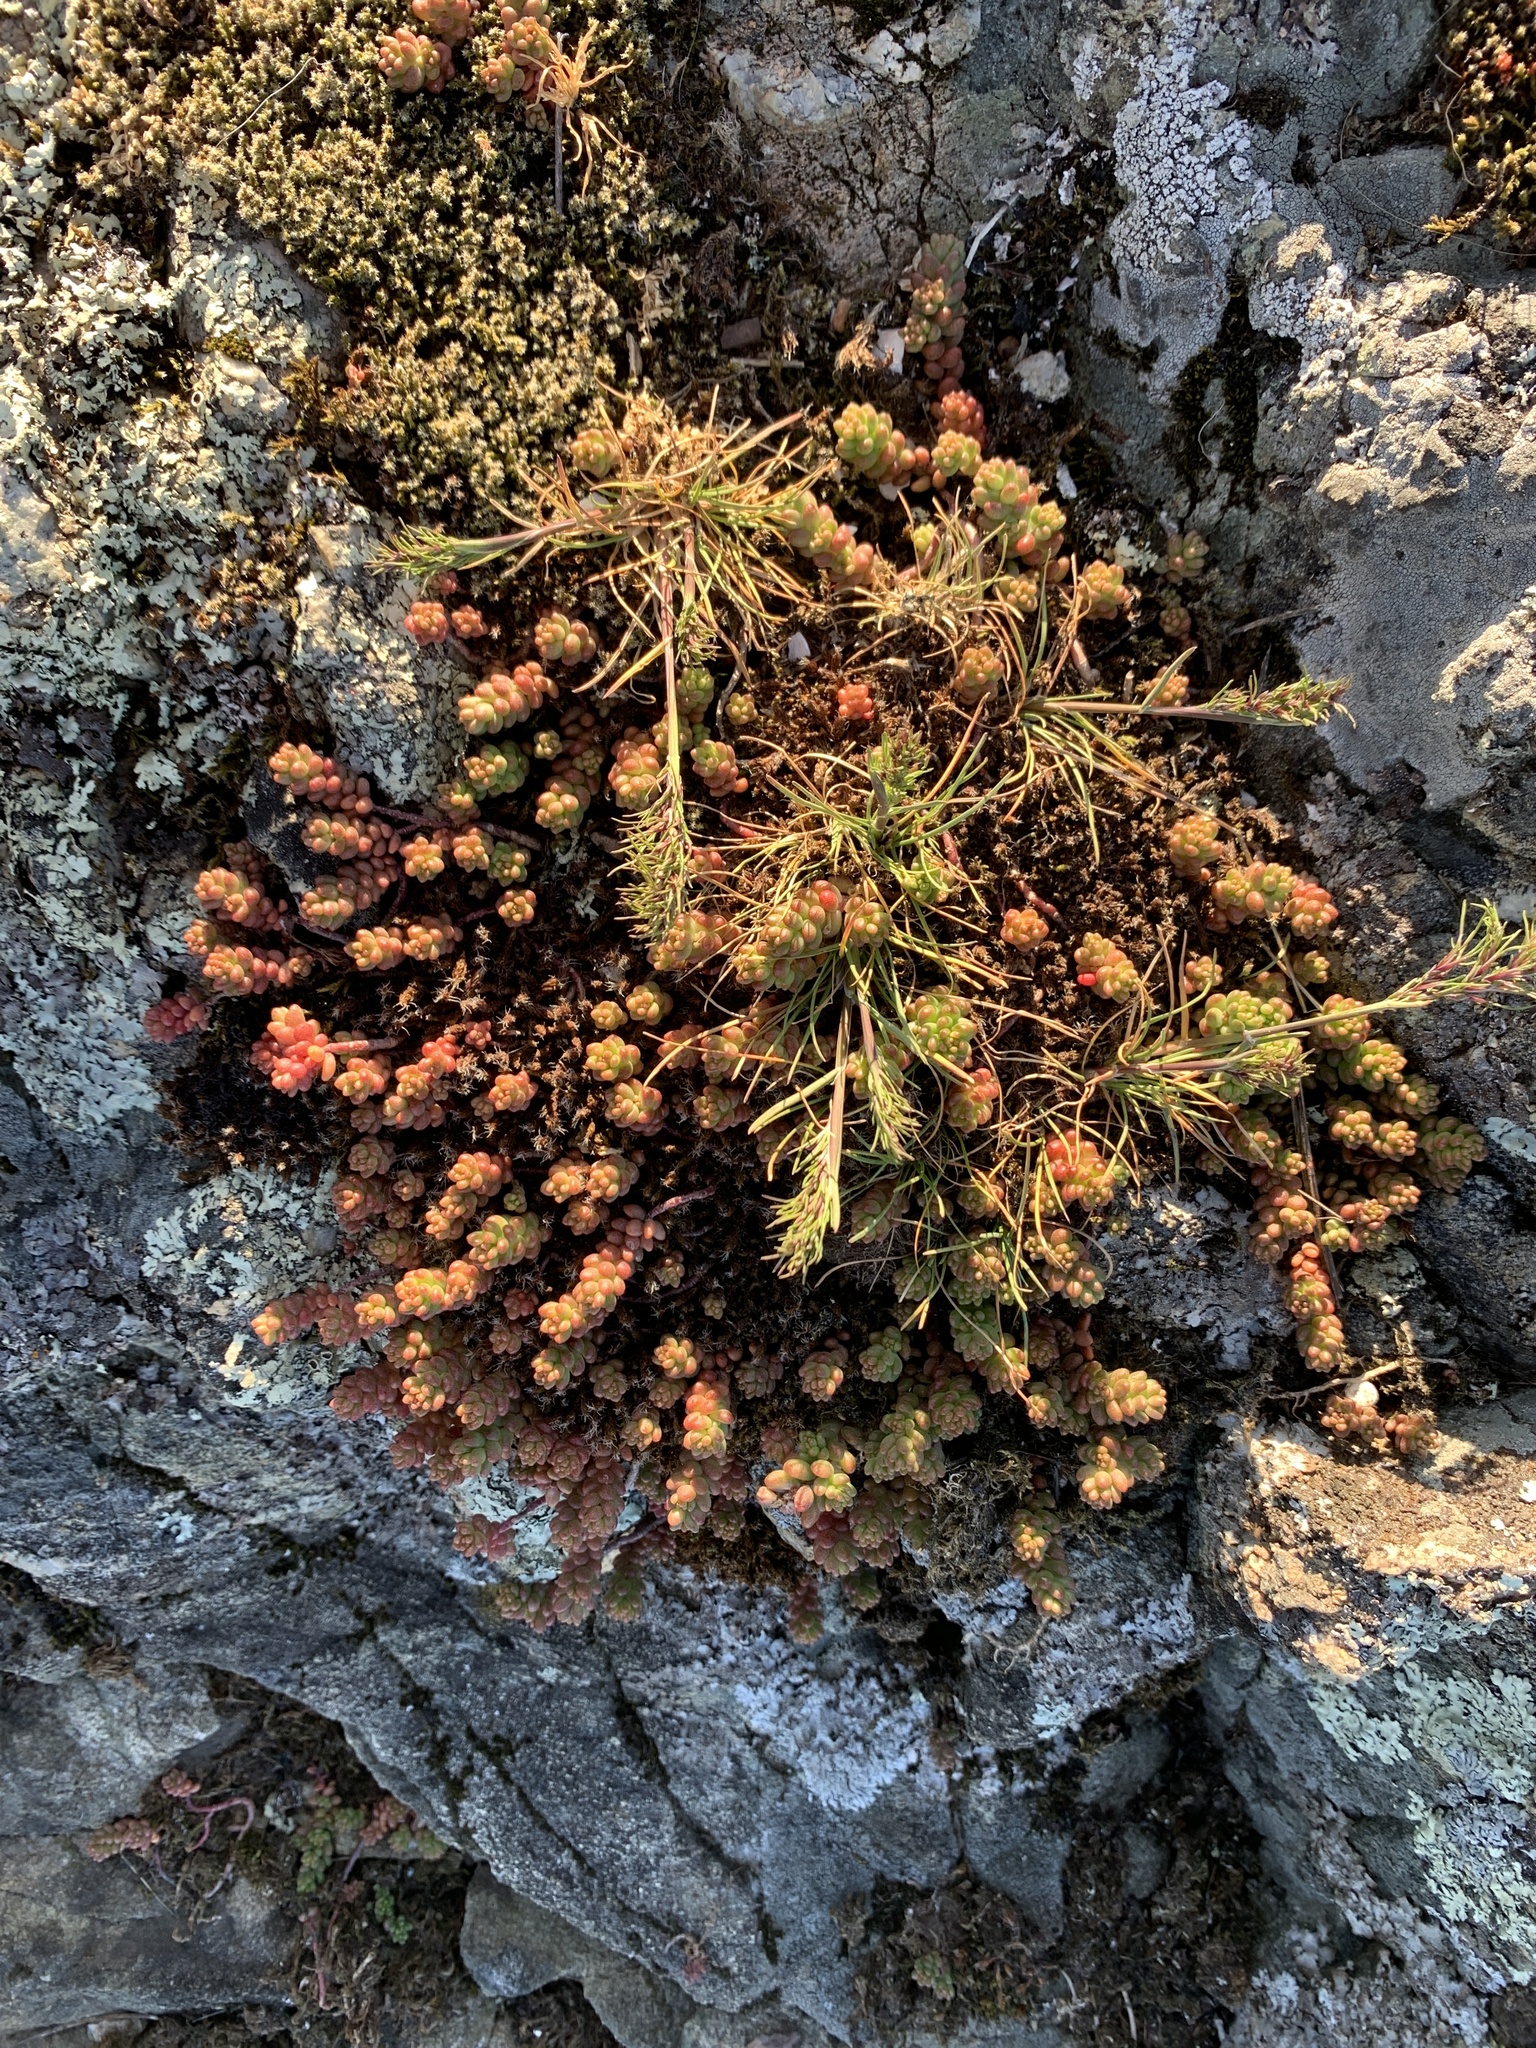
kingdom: Plantae
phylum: Tracheophyta
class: Magnoliopsida
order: Saxifragales
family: Crassulaceae
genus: Sedum
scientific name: Sedum album
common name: White stonecrop
